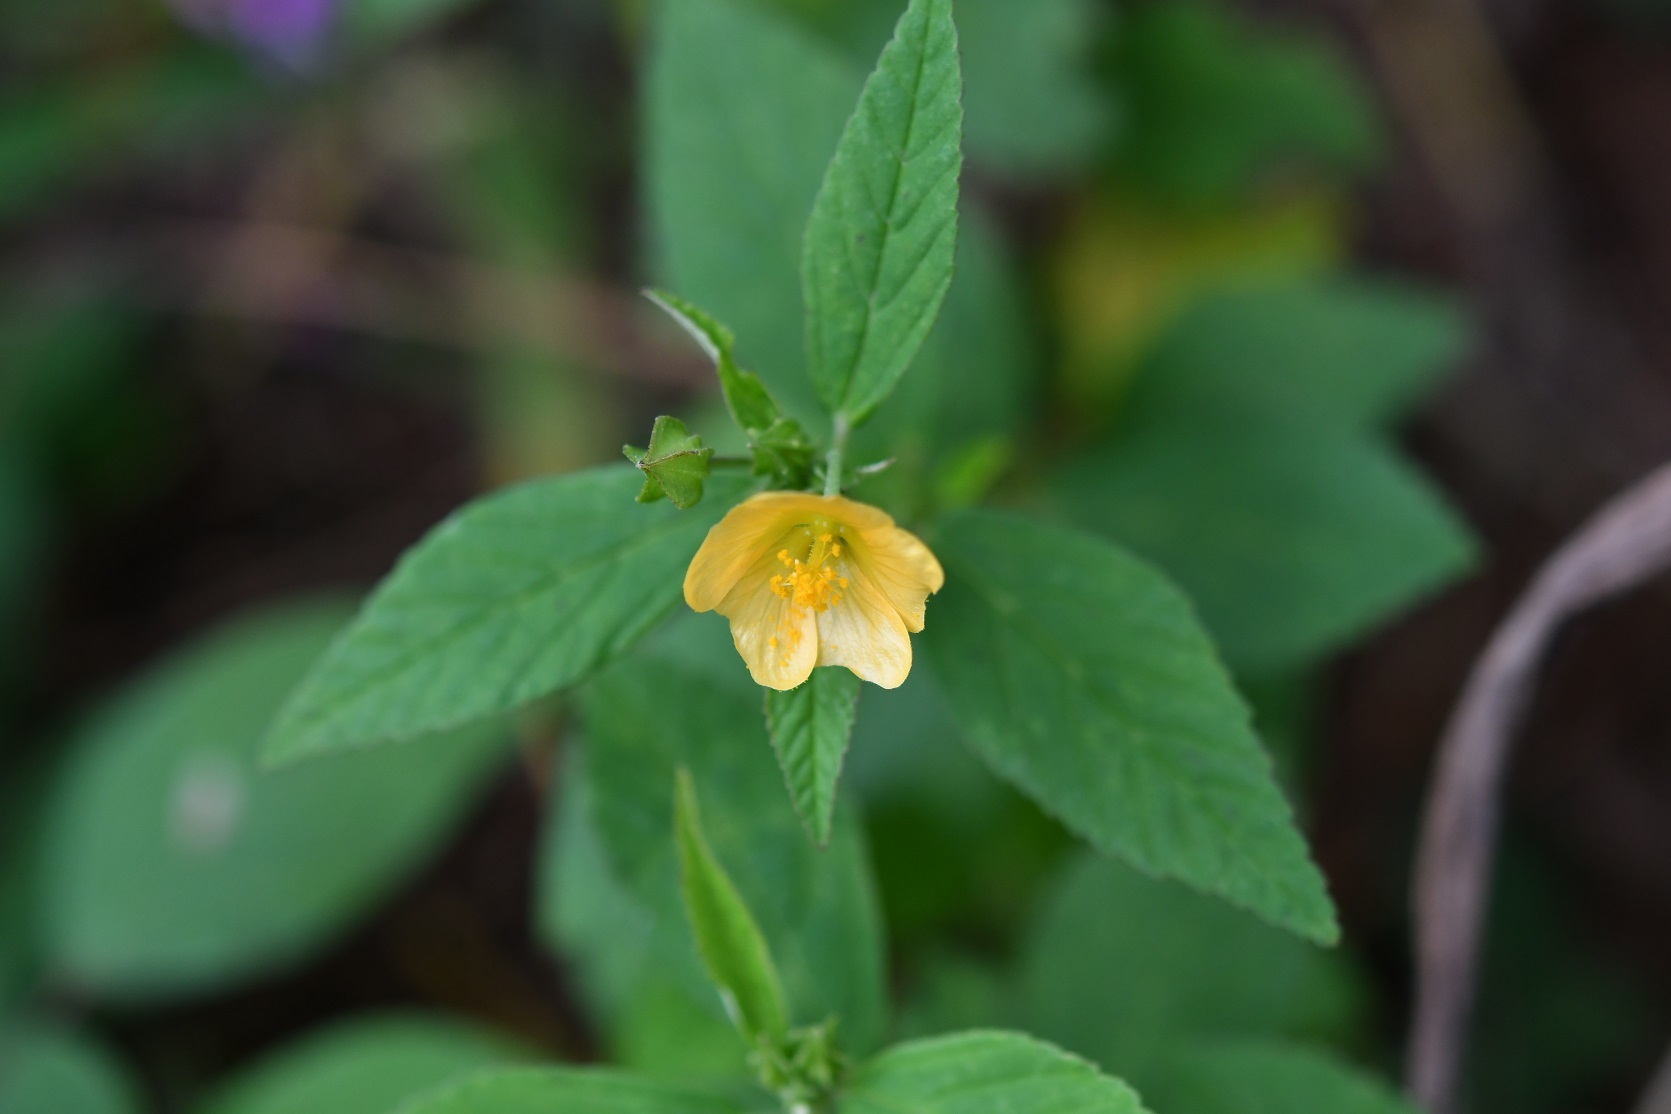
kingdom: Plantae
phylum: Tracheophyta
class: Magnoliopsida
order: Malvales
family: Malvaceae
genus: Sida
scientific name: Sida acuta
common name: Common wireweed
